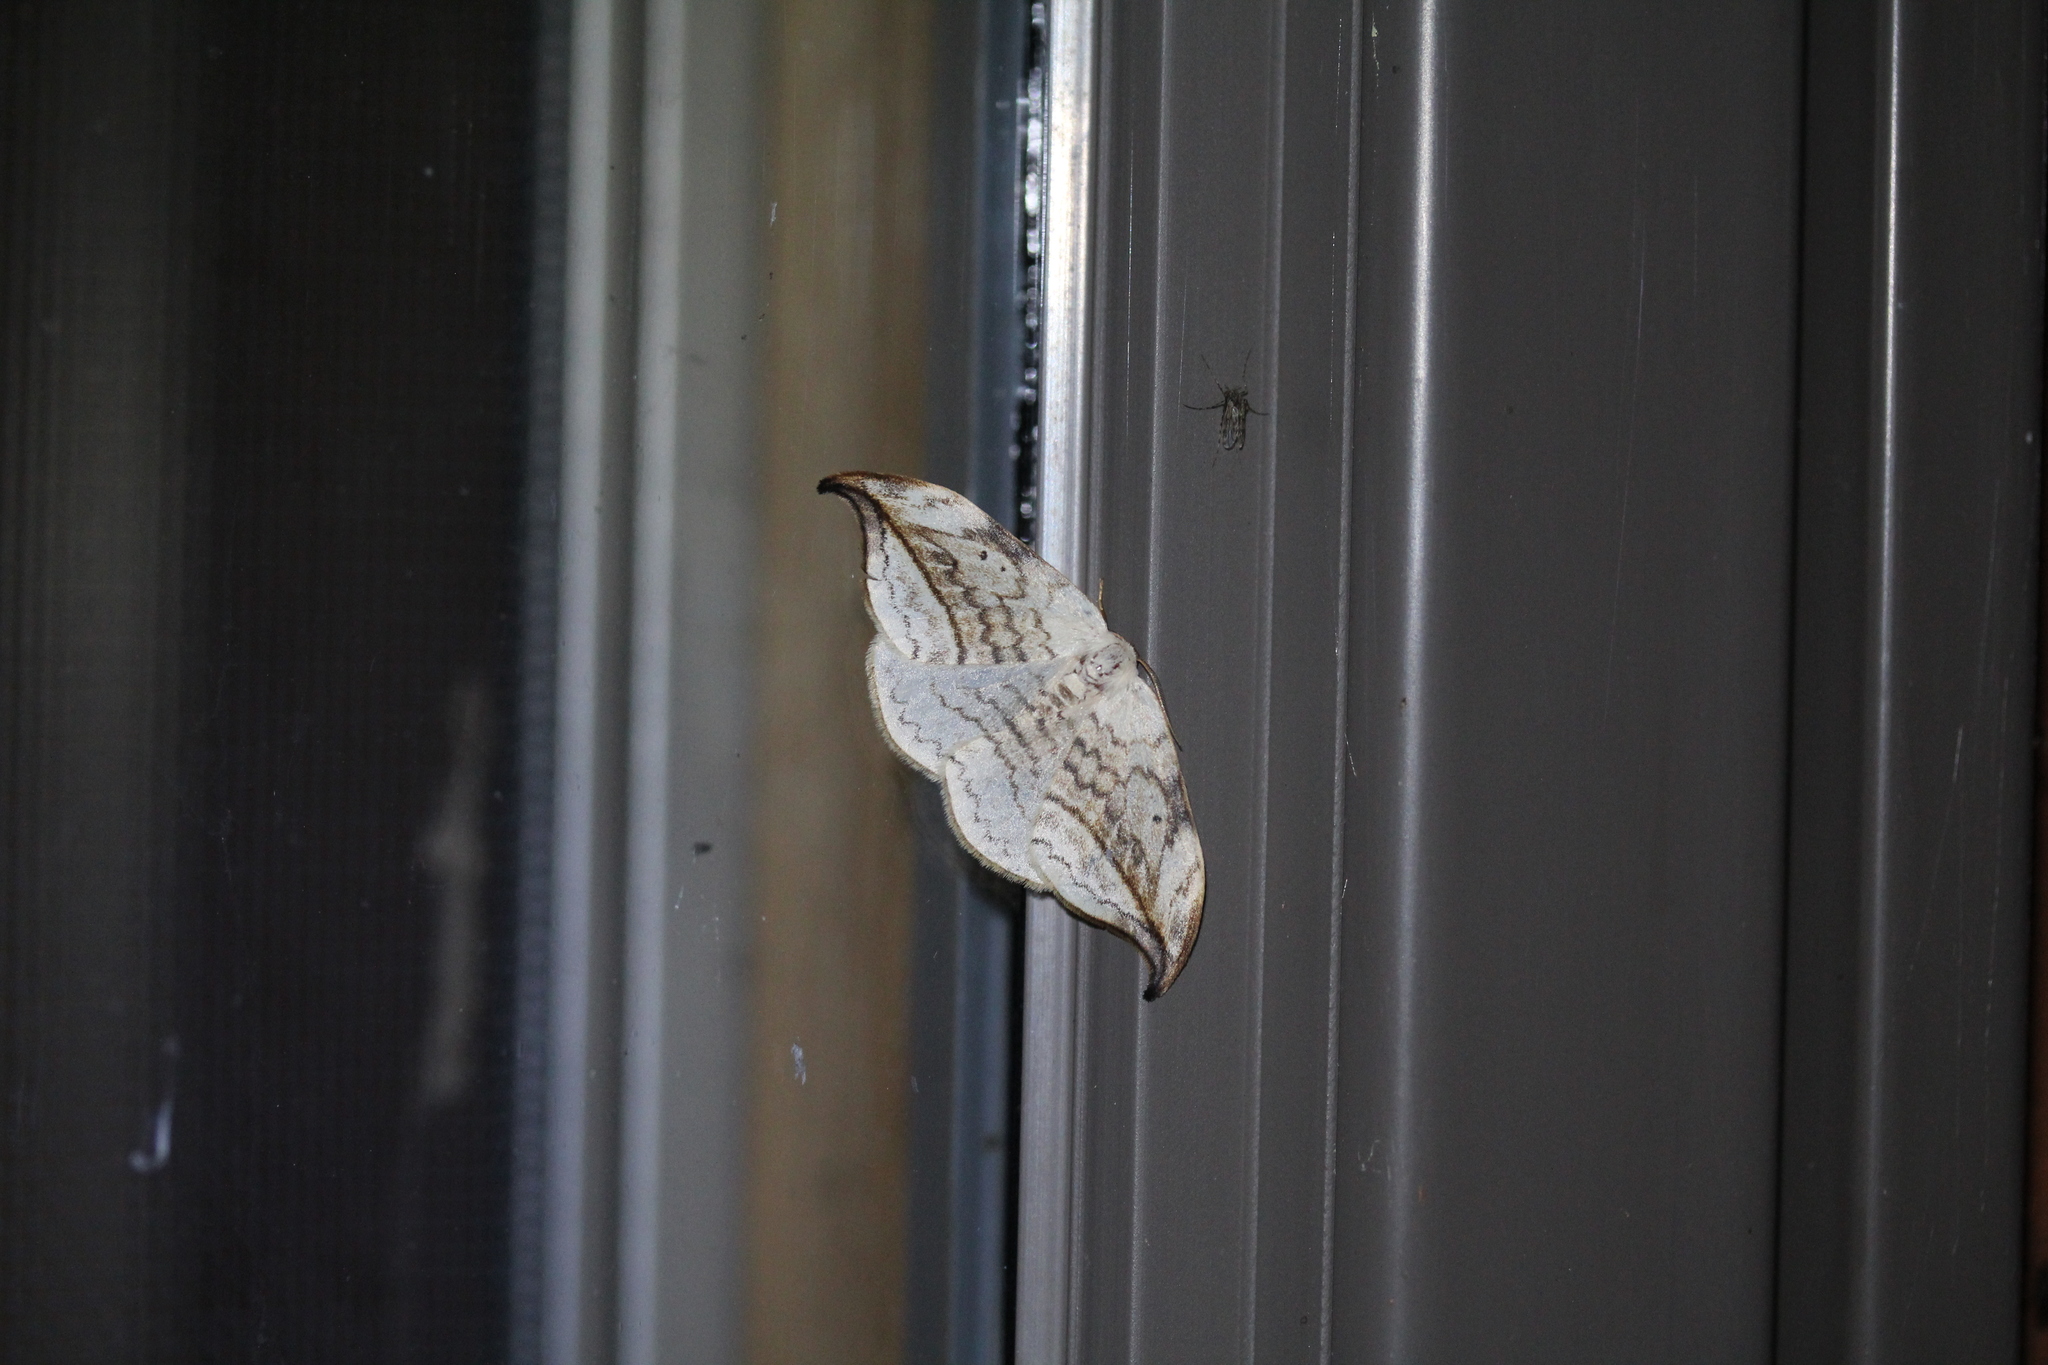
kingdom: Animalia
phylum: Arthropoda
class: Insecta
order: Lepidoptera
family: Drepanidae
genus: Drepana
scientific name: Drepana arcuata
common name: Arched hooktip moth
